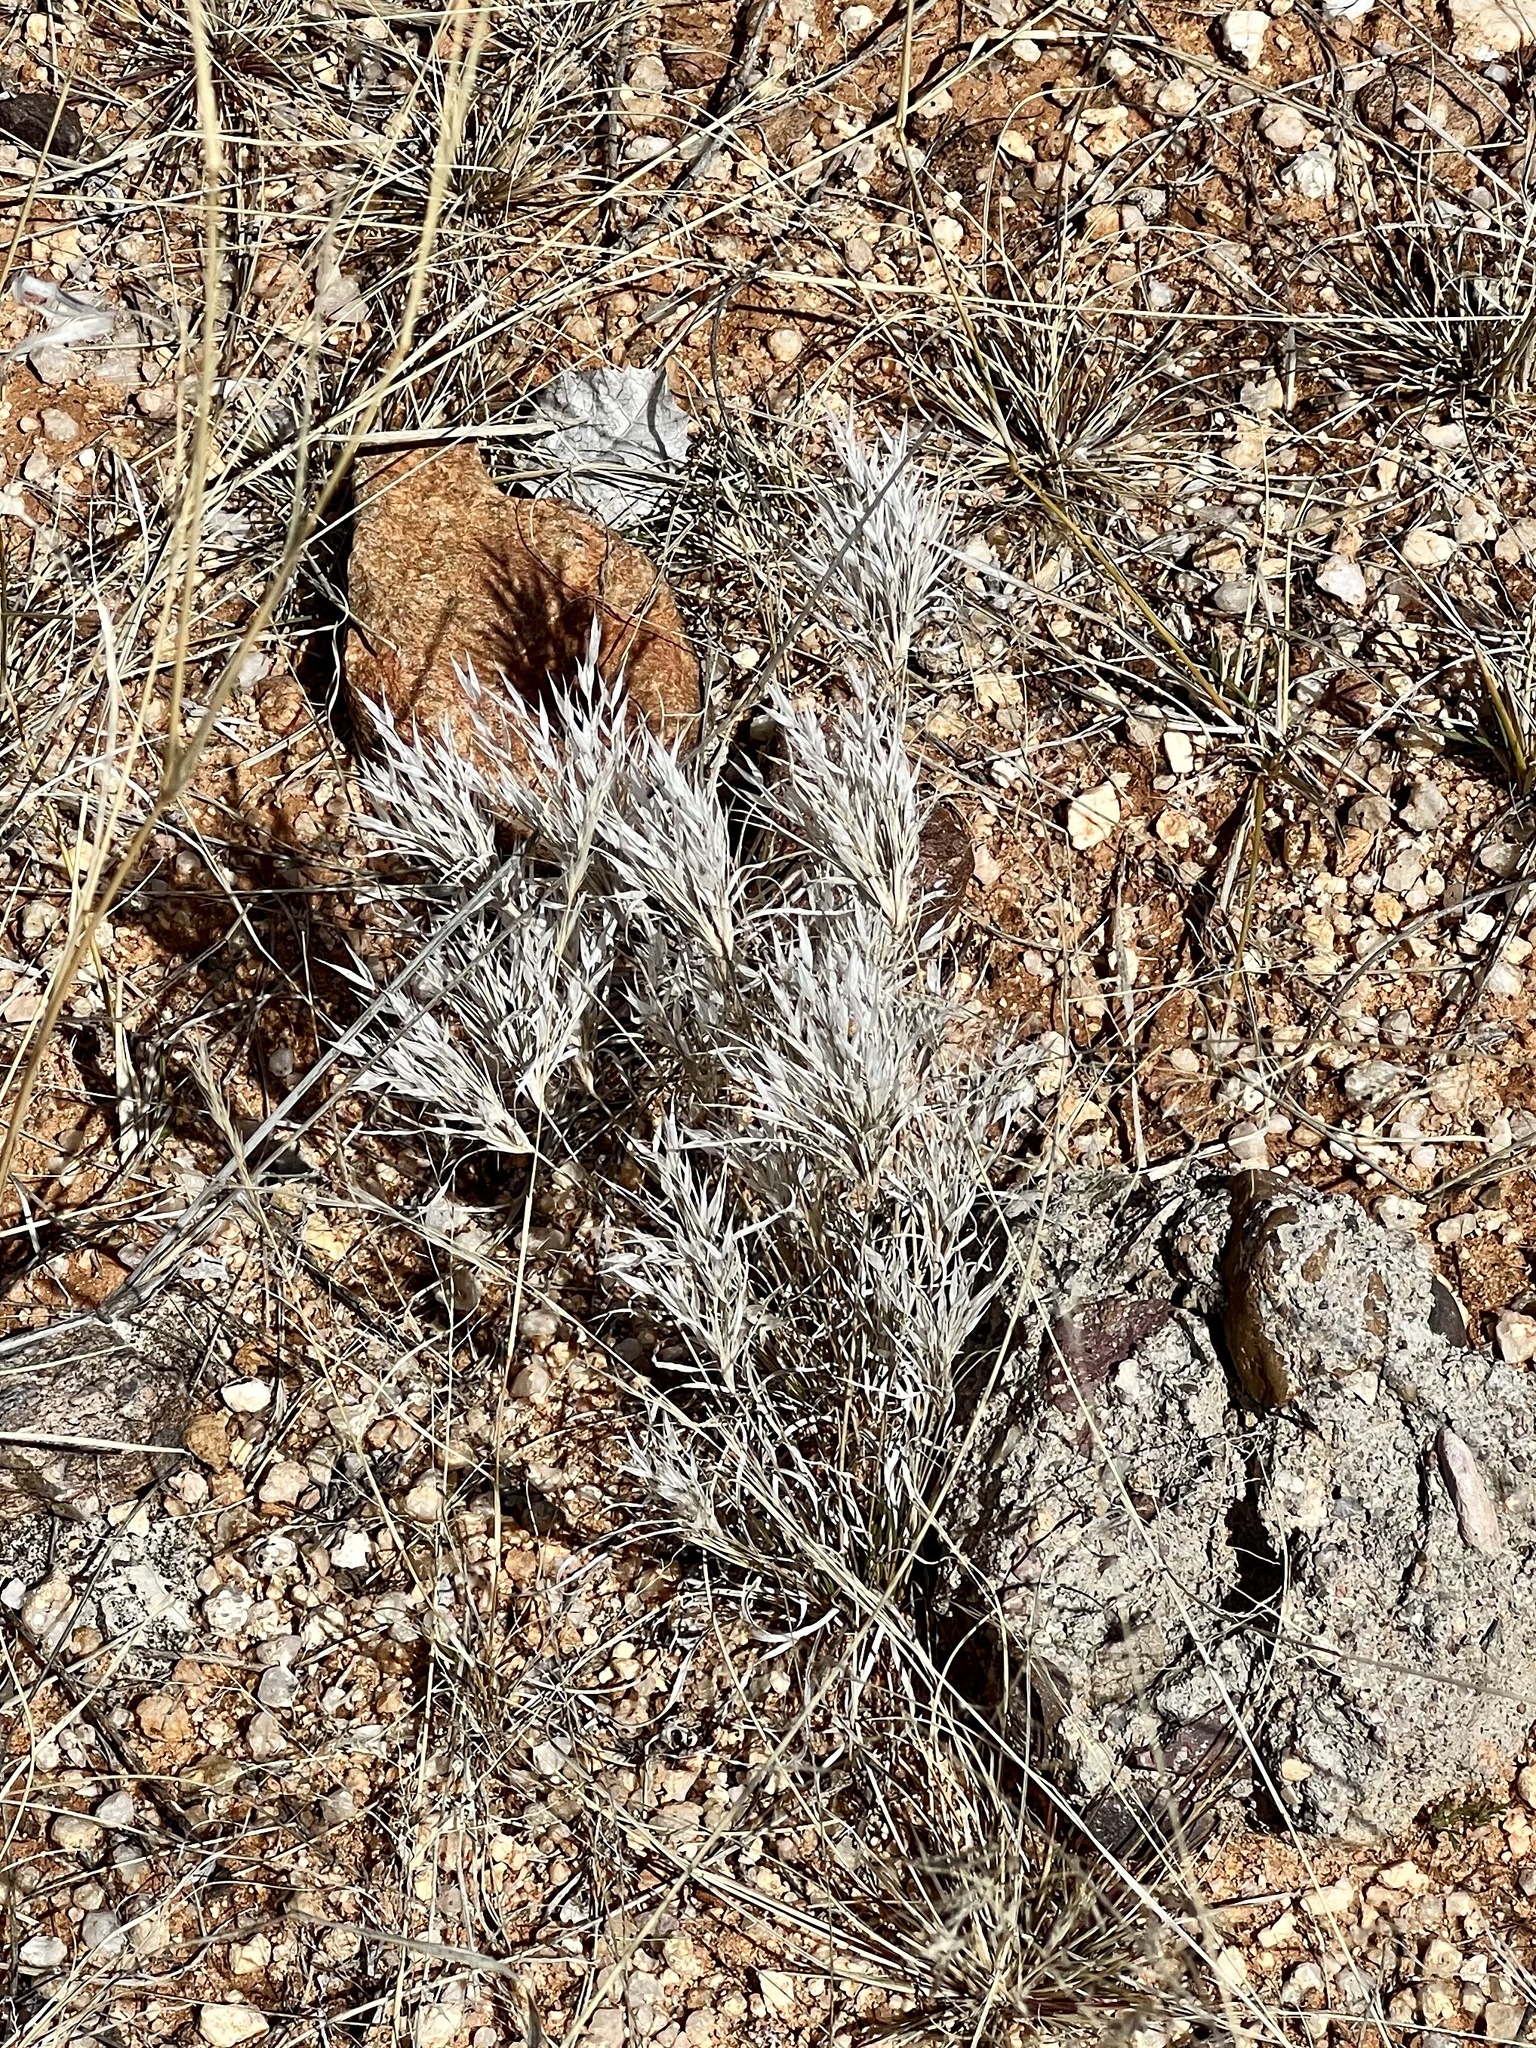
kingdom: Plantae
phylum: Tracheophyta
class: Liliopsida
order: Poales
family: Poaceae
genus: Dasyochloa
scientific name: Dasyochloa pulchella
